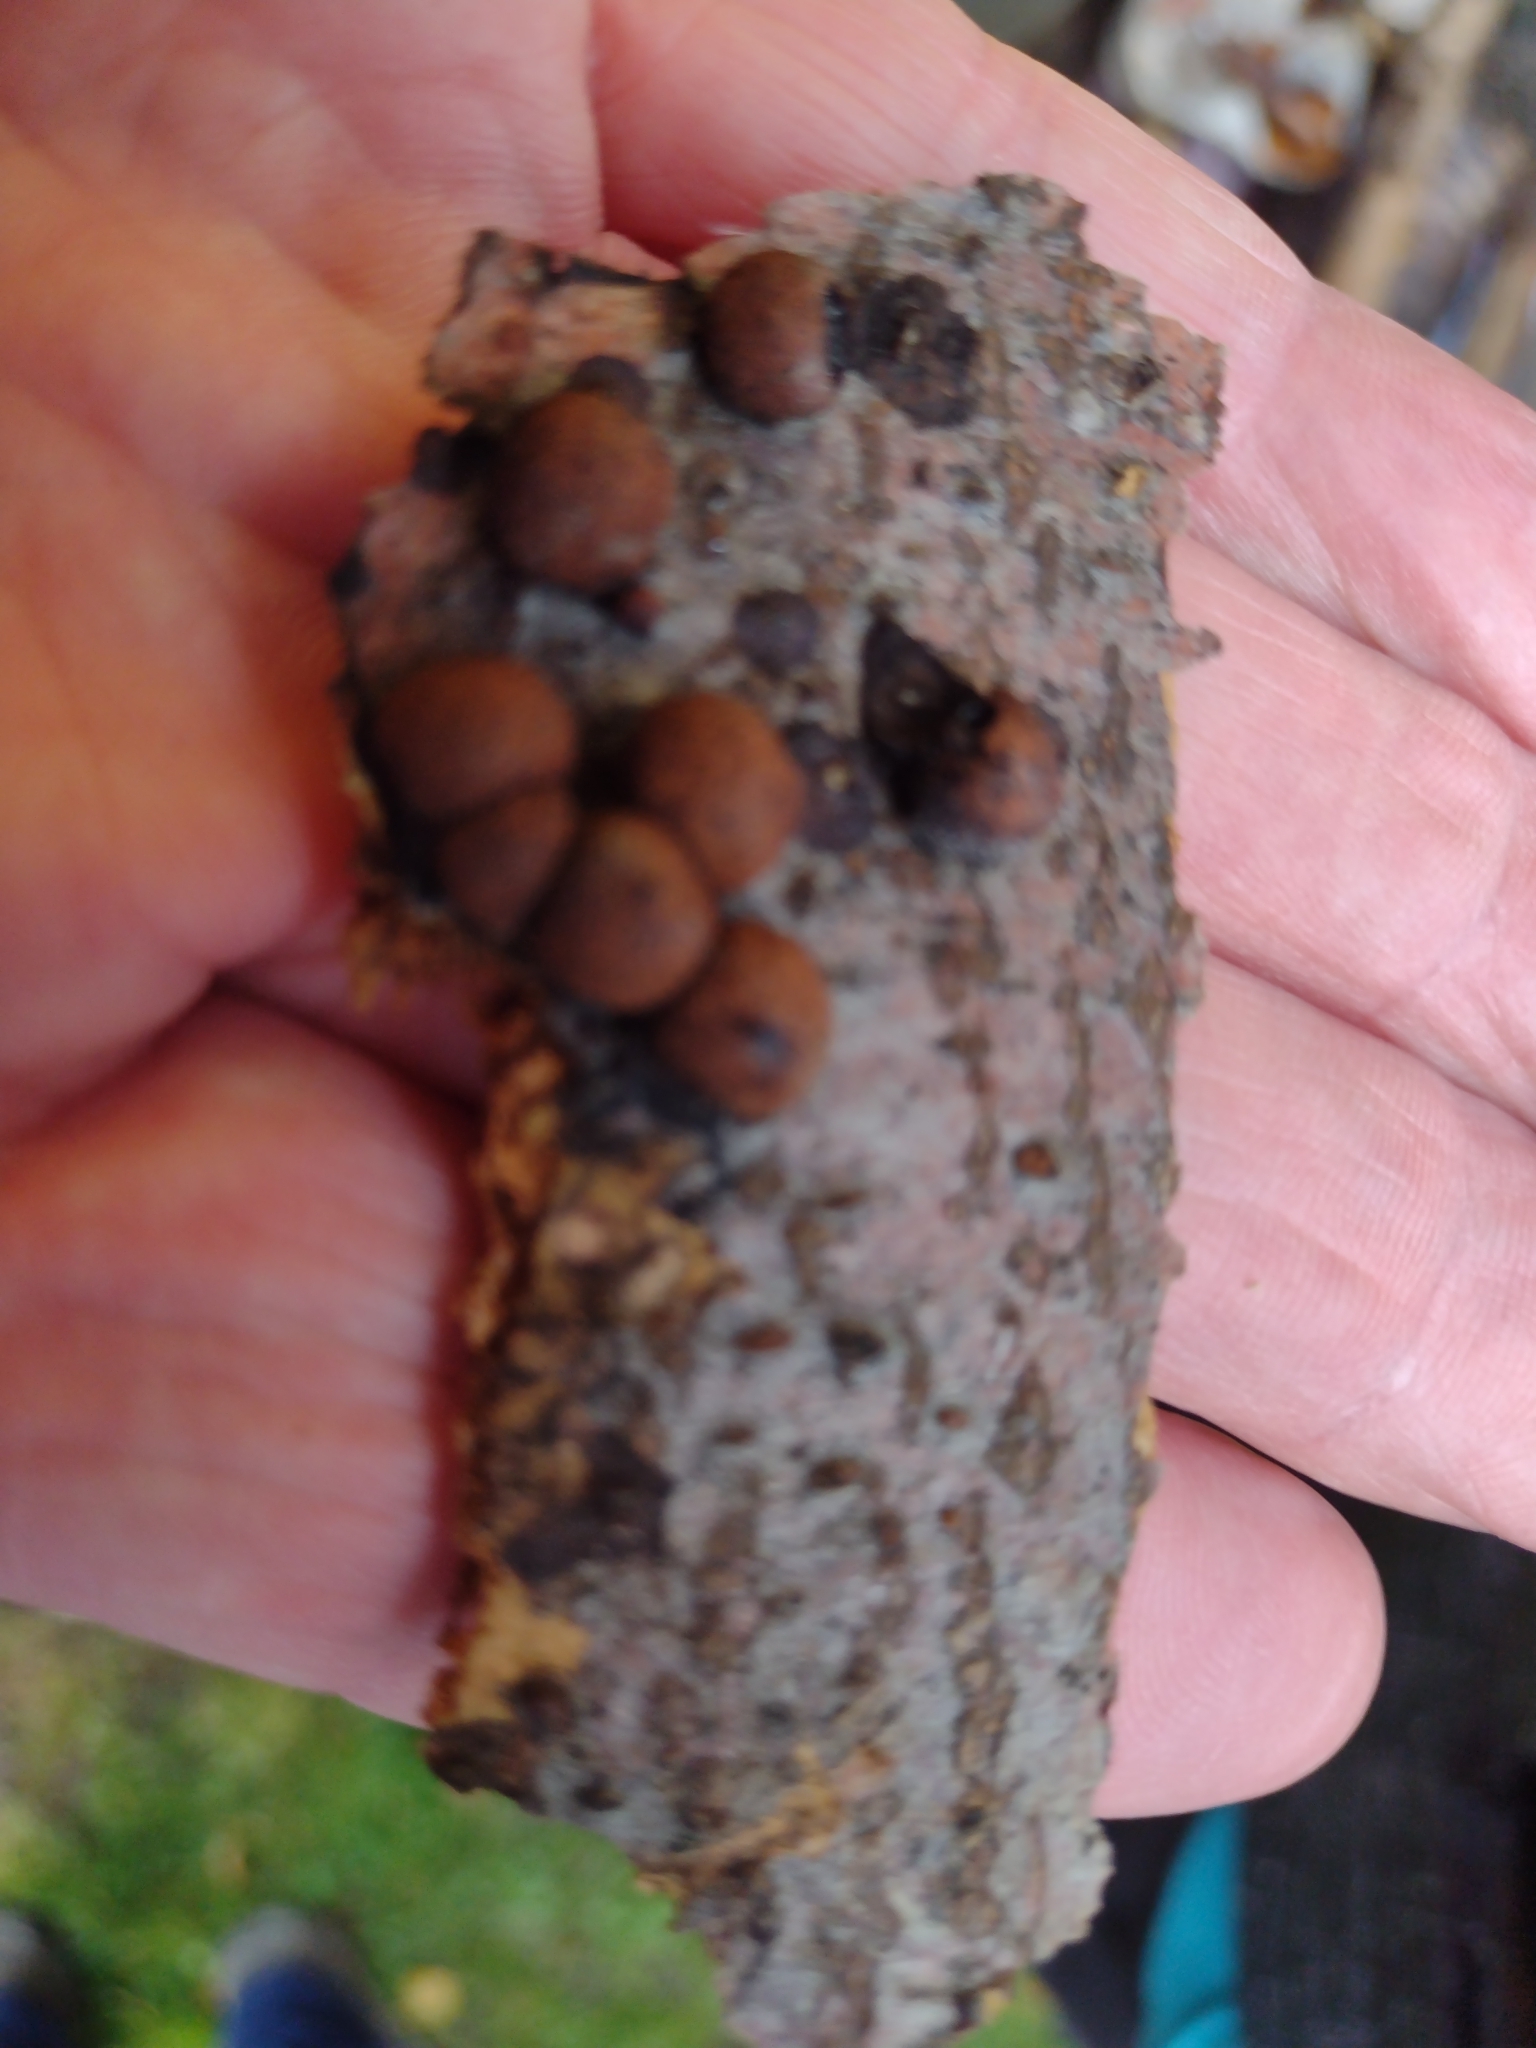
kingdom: Fungi
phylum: Ascomycota
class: Sordariomycetes
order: Xylariales
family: Hypoxylaceae
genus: Hypoxylon
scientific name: Hypoxylon fragiforme
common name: Beech woodwart
